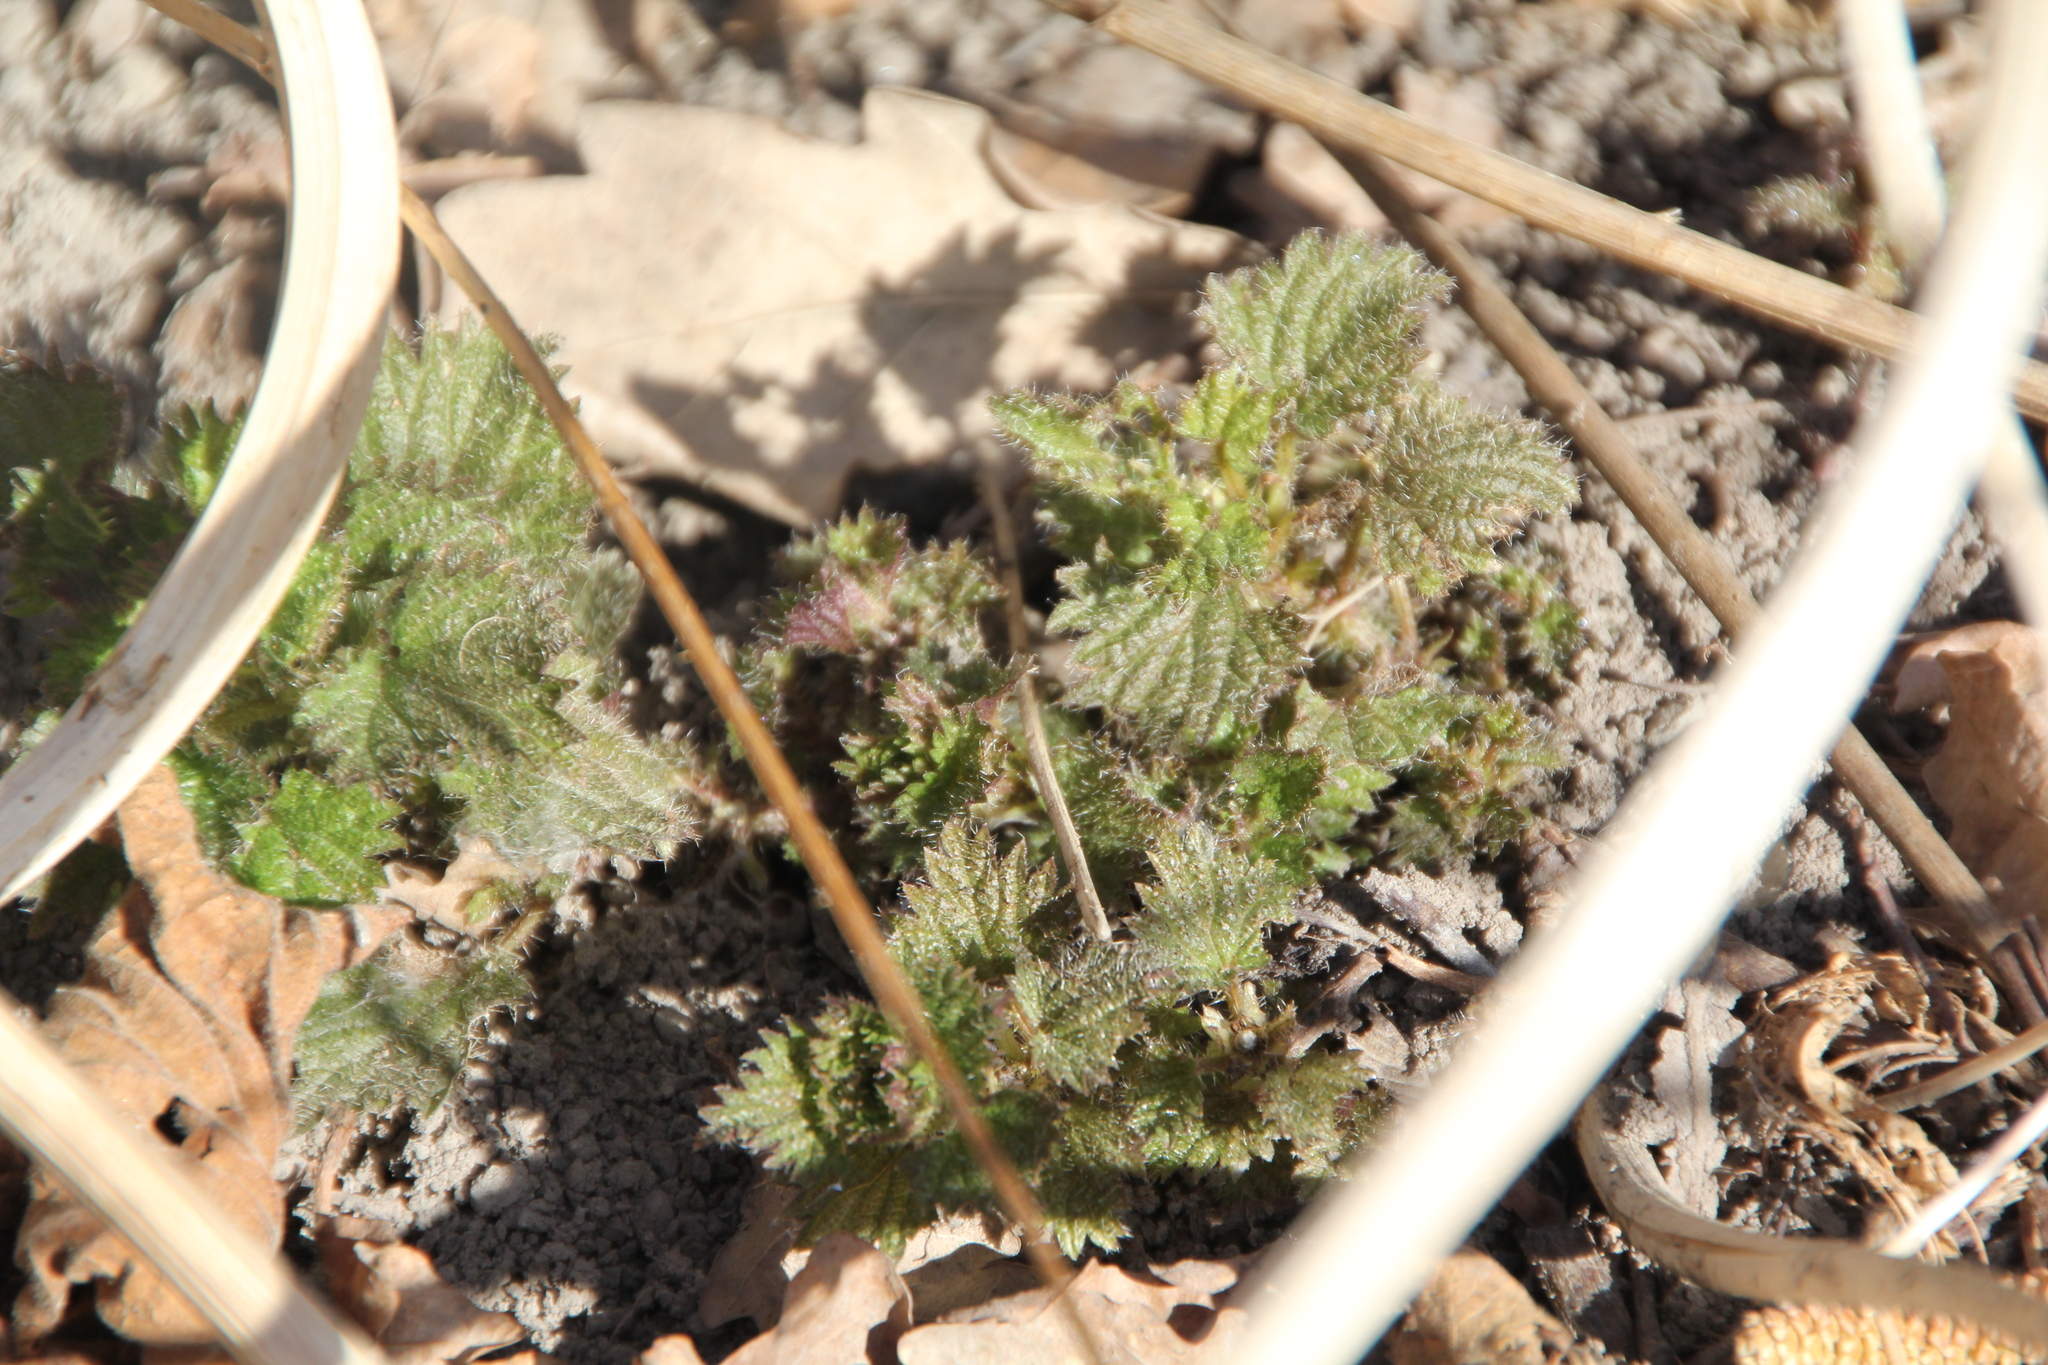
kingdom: Plantae
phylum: Tracheophyta
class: Magnoliopsida
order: Rosales
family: Urticaceae
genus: Urtica
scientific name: Urtica dioica
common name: Common nettle
